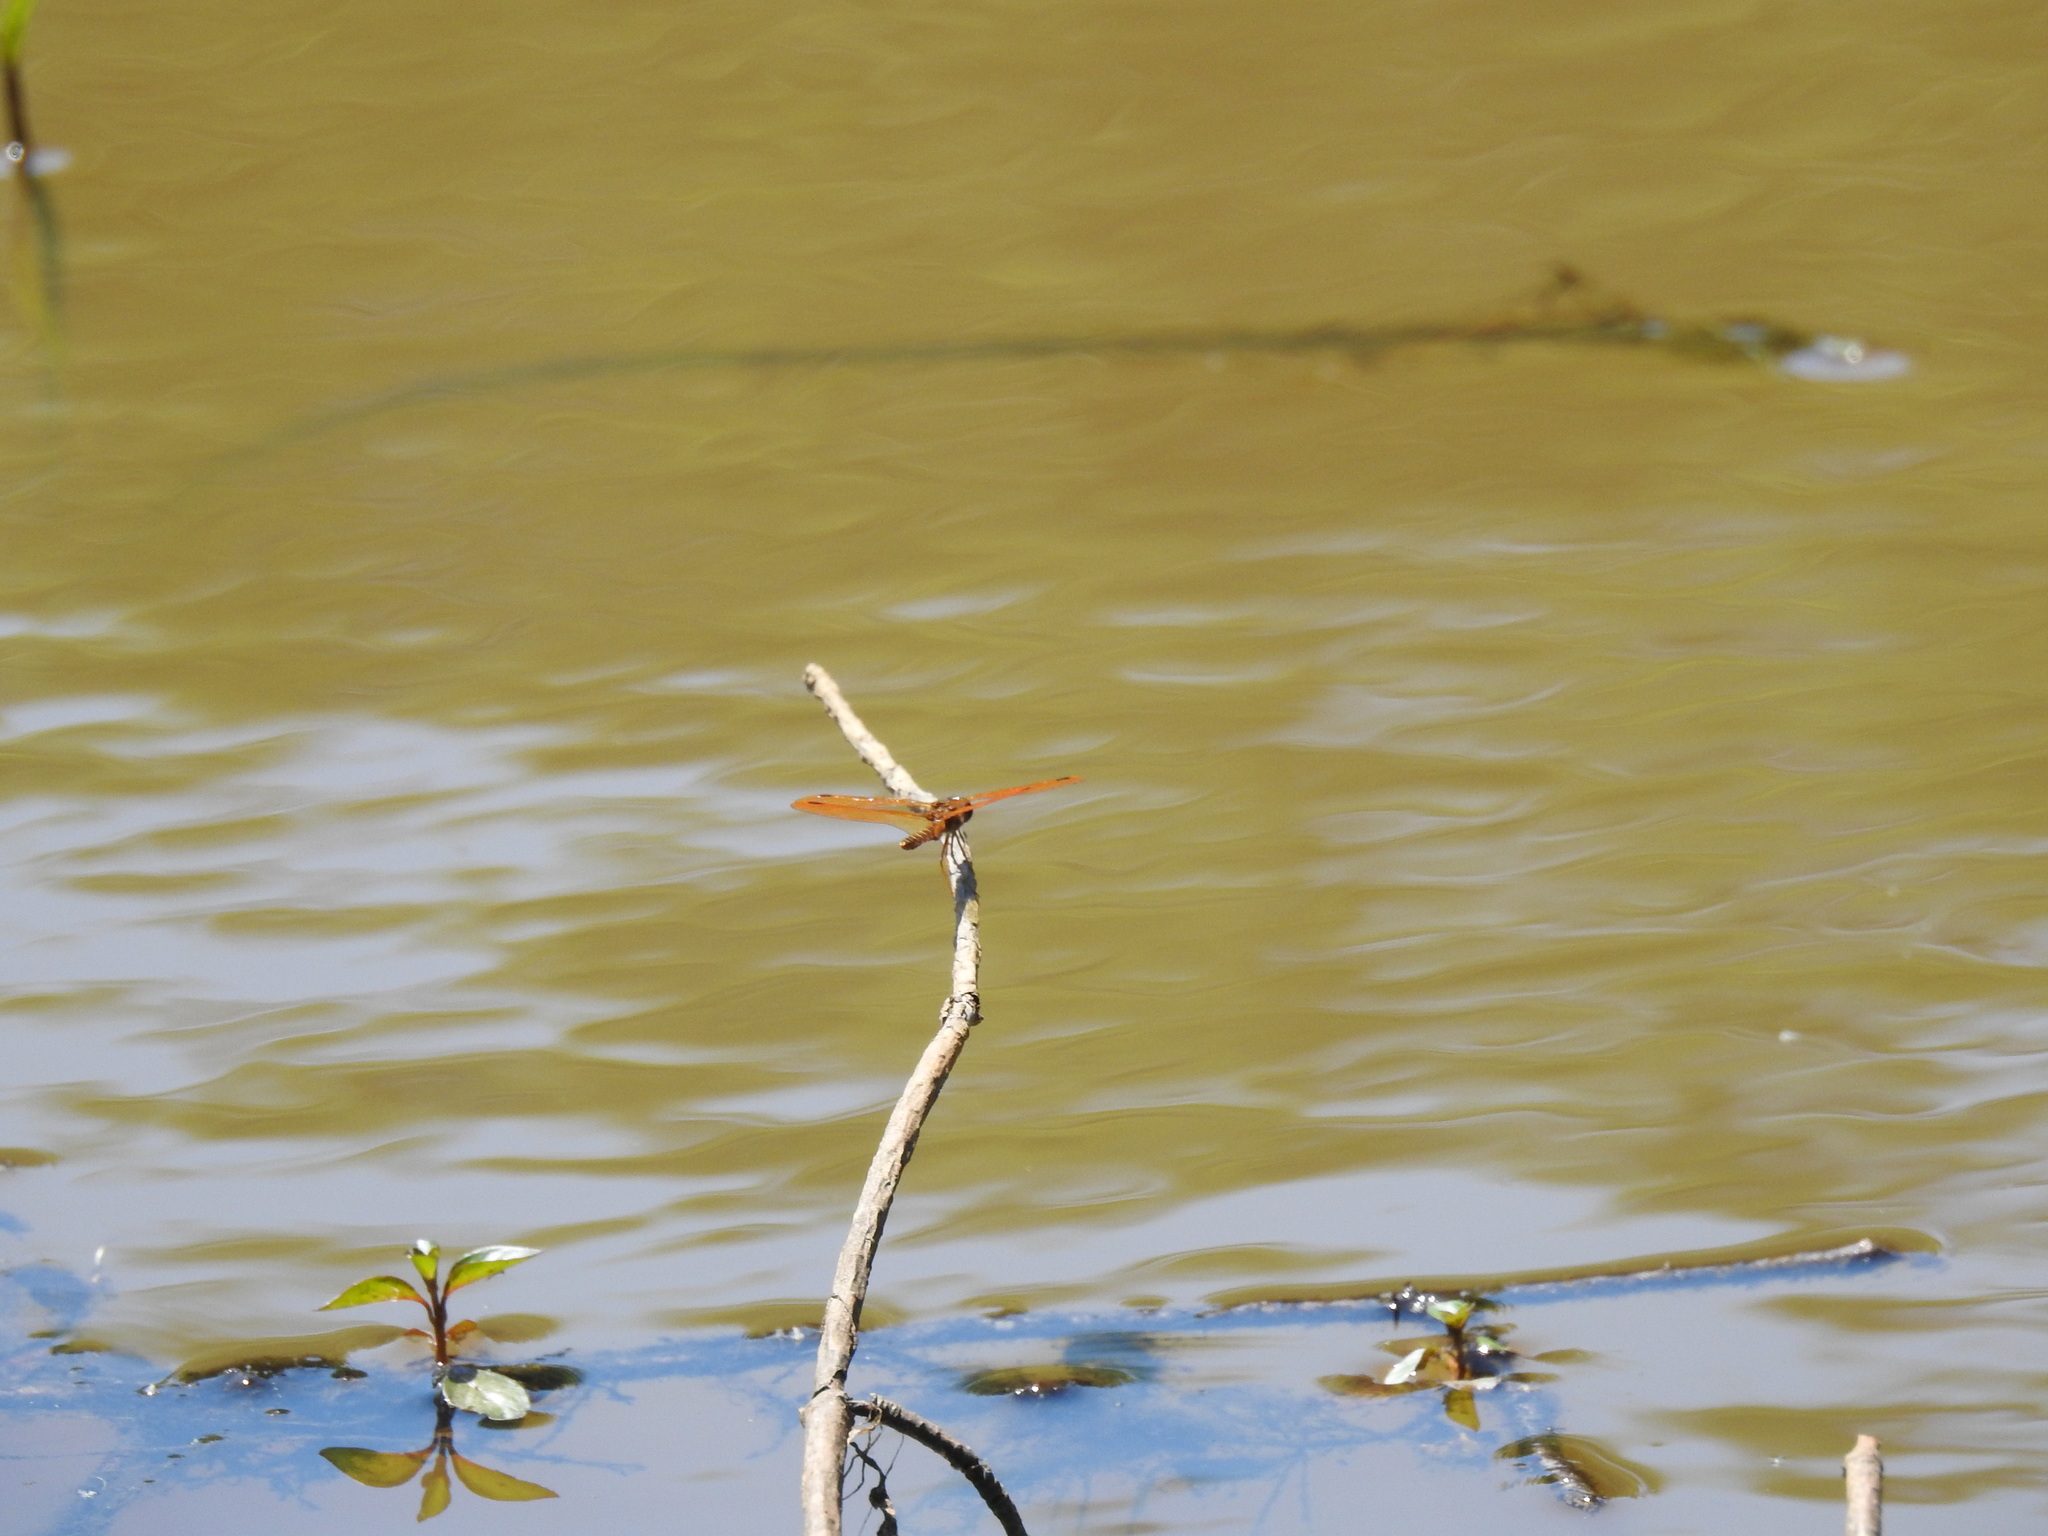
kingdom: Animalia
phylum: Arthropoda
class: Insecta
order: Odonata
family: Libellulidae
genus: Perithemis
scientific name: Perithemis tenera
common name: Eastern amberwing
